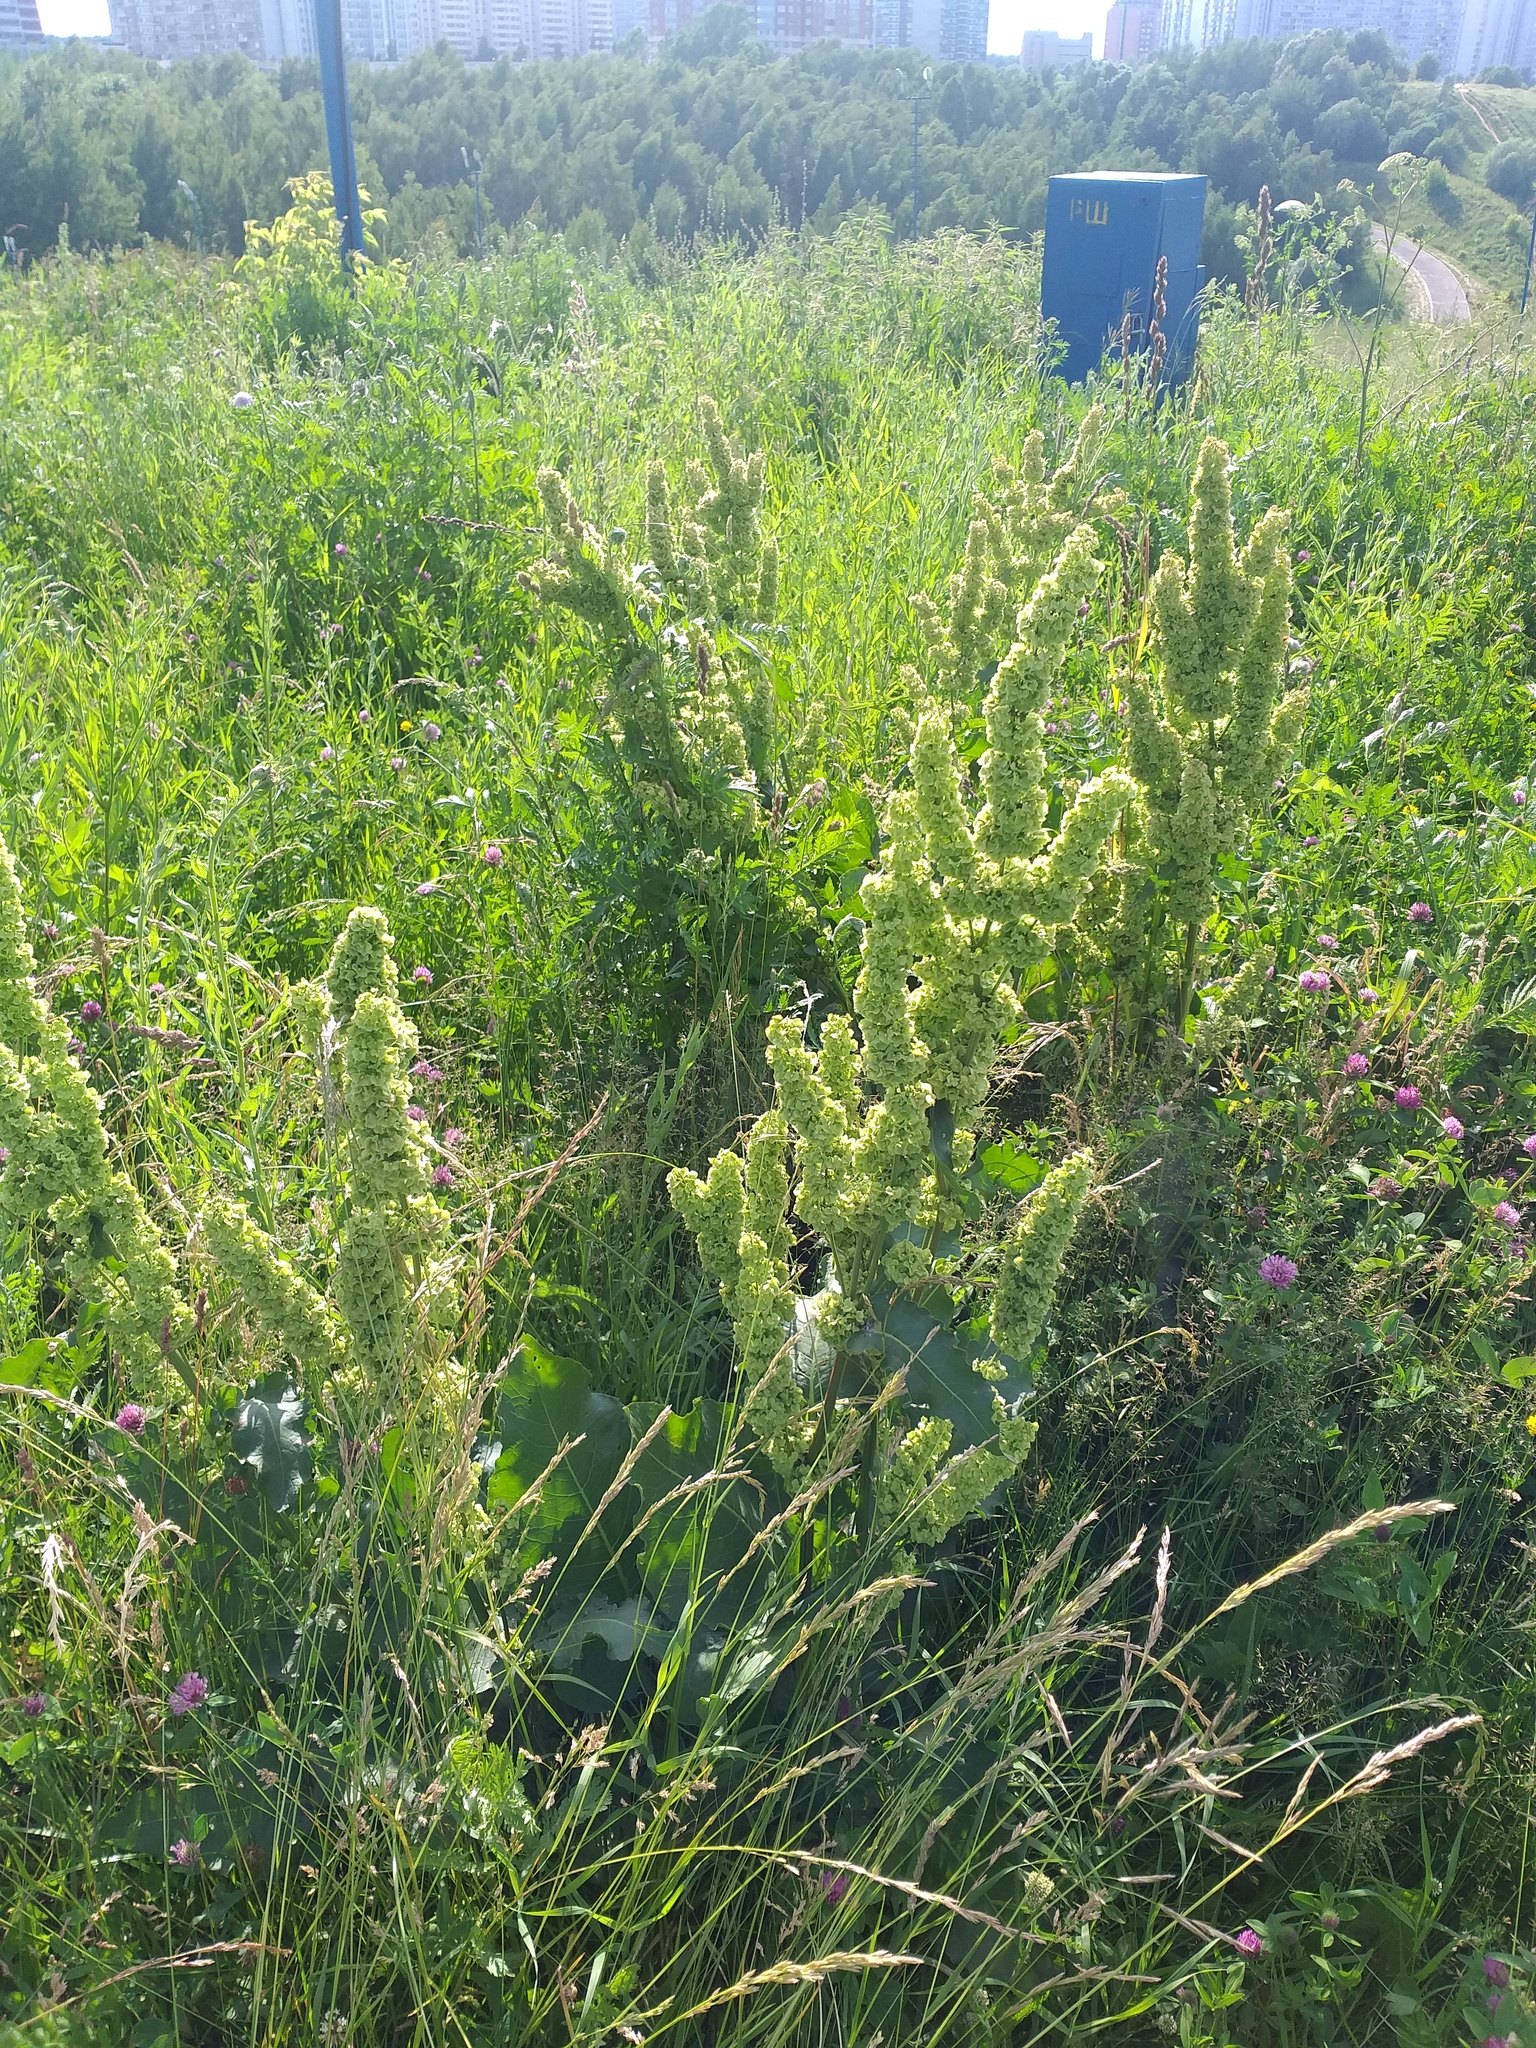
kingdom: Plantae
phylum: Tracheophyta
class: Magnoliopsida
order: Caryophyllales
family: Polygonaceae
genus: Rumex
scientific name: Rumex confertus
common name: Russian dock
